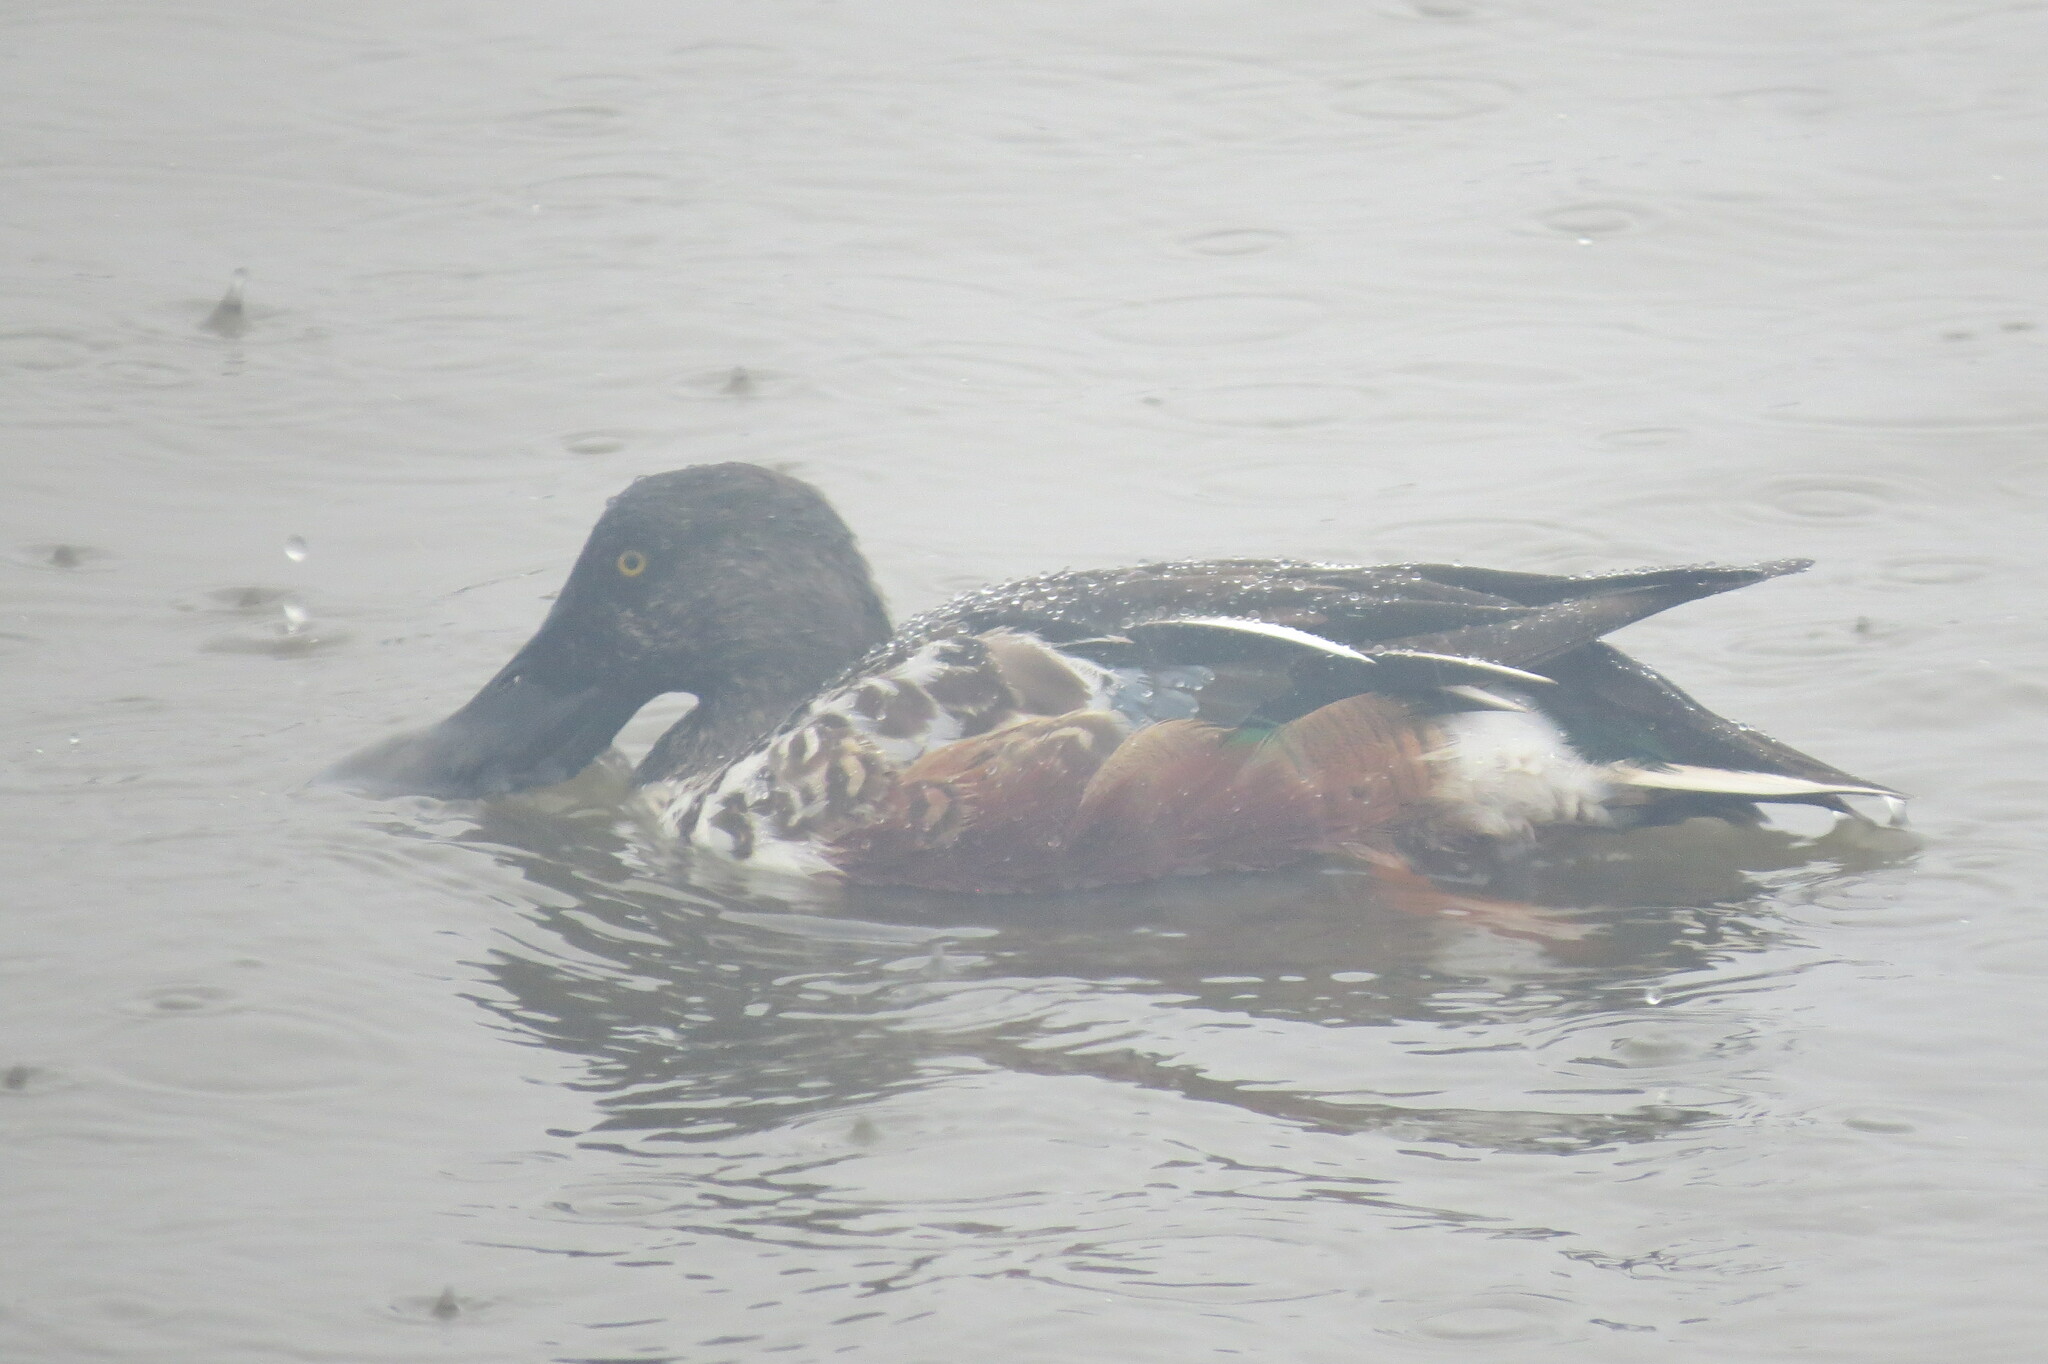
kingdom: Animalia
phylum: Chordata
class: Aves
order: Anseriformes
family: Anatidae
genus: Spatula
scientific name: Spatula clypeata
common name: Northern shoveler
